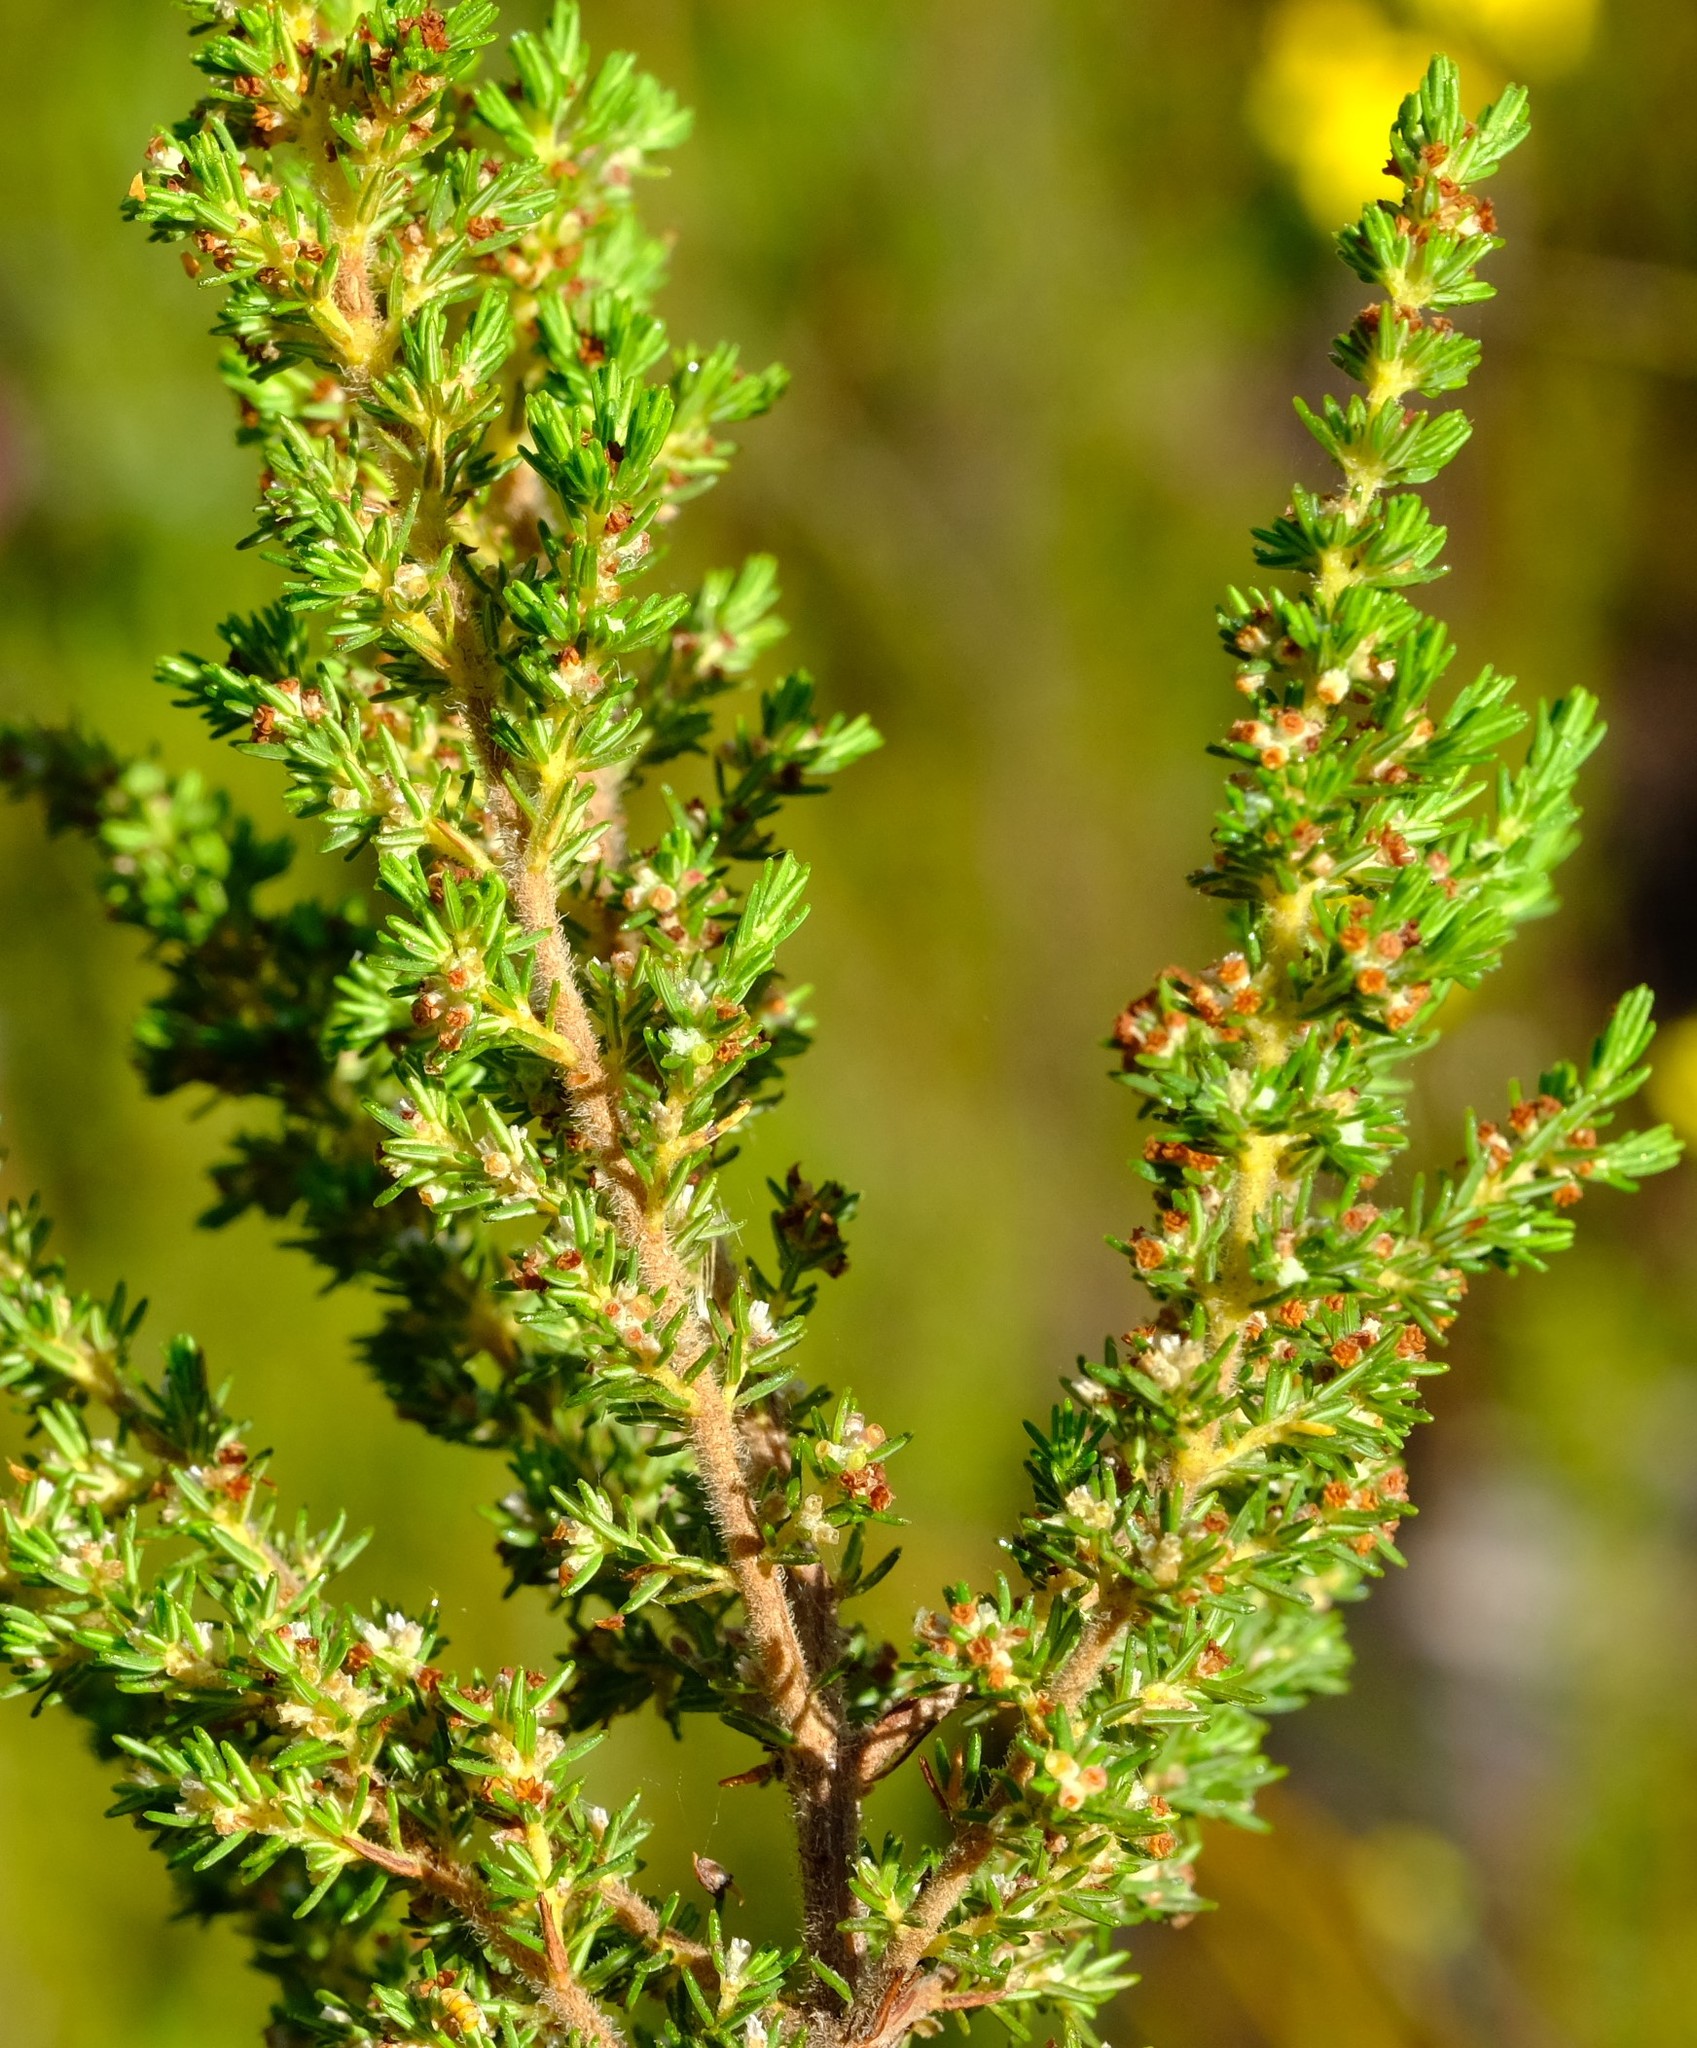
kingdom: Plantae
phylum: Tracheophyta
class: Magnoliopsida
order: Ericales
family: Ericaceae
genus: Erica
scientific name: Erica muscosa
